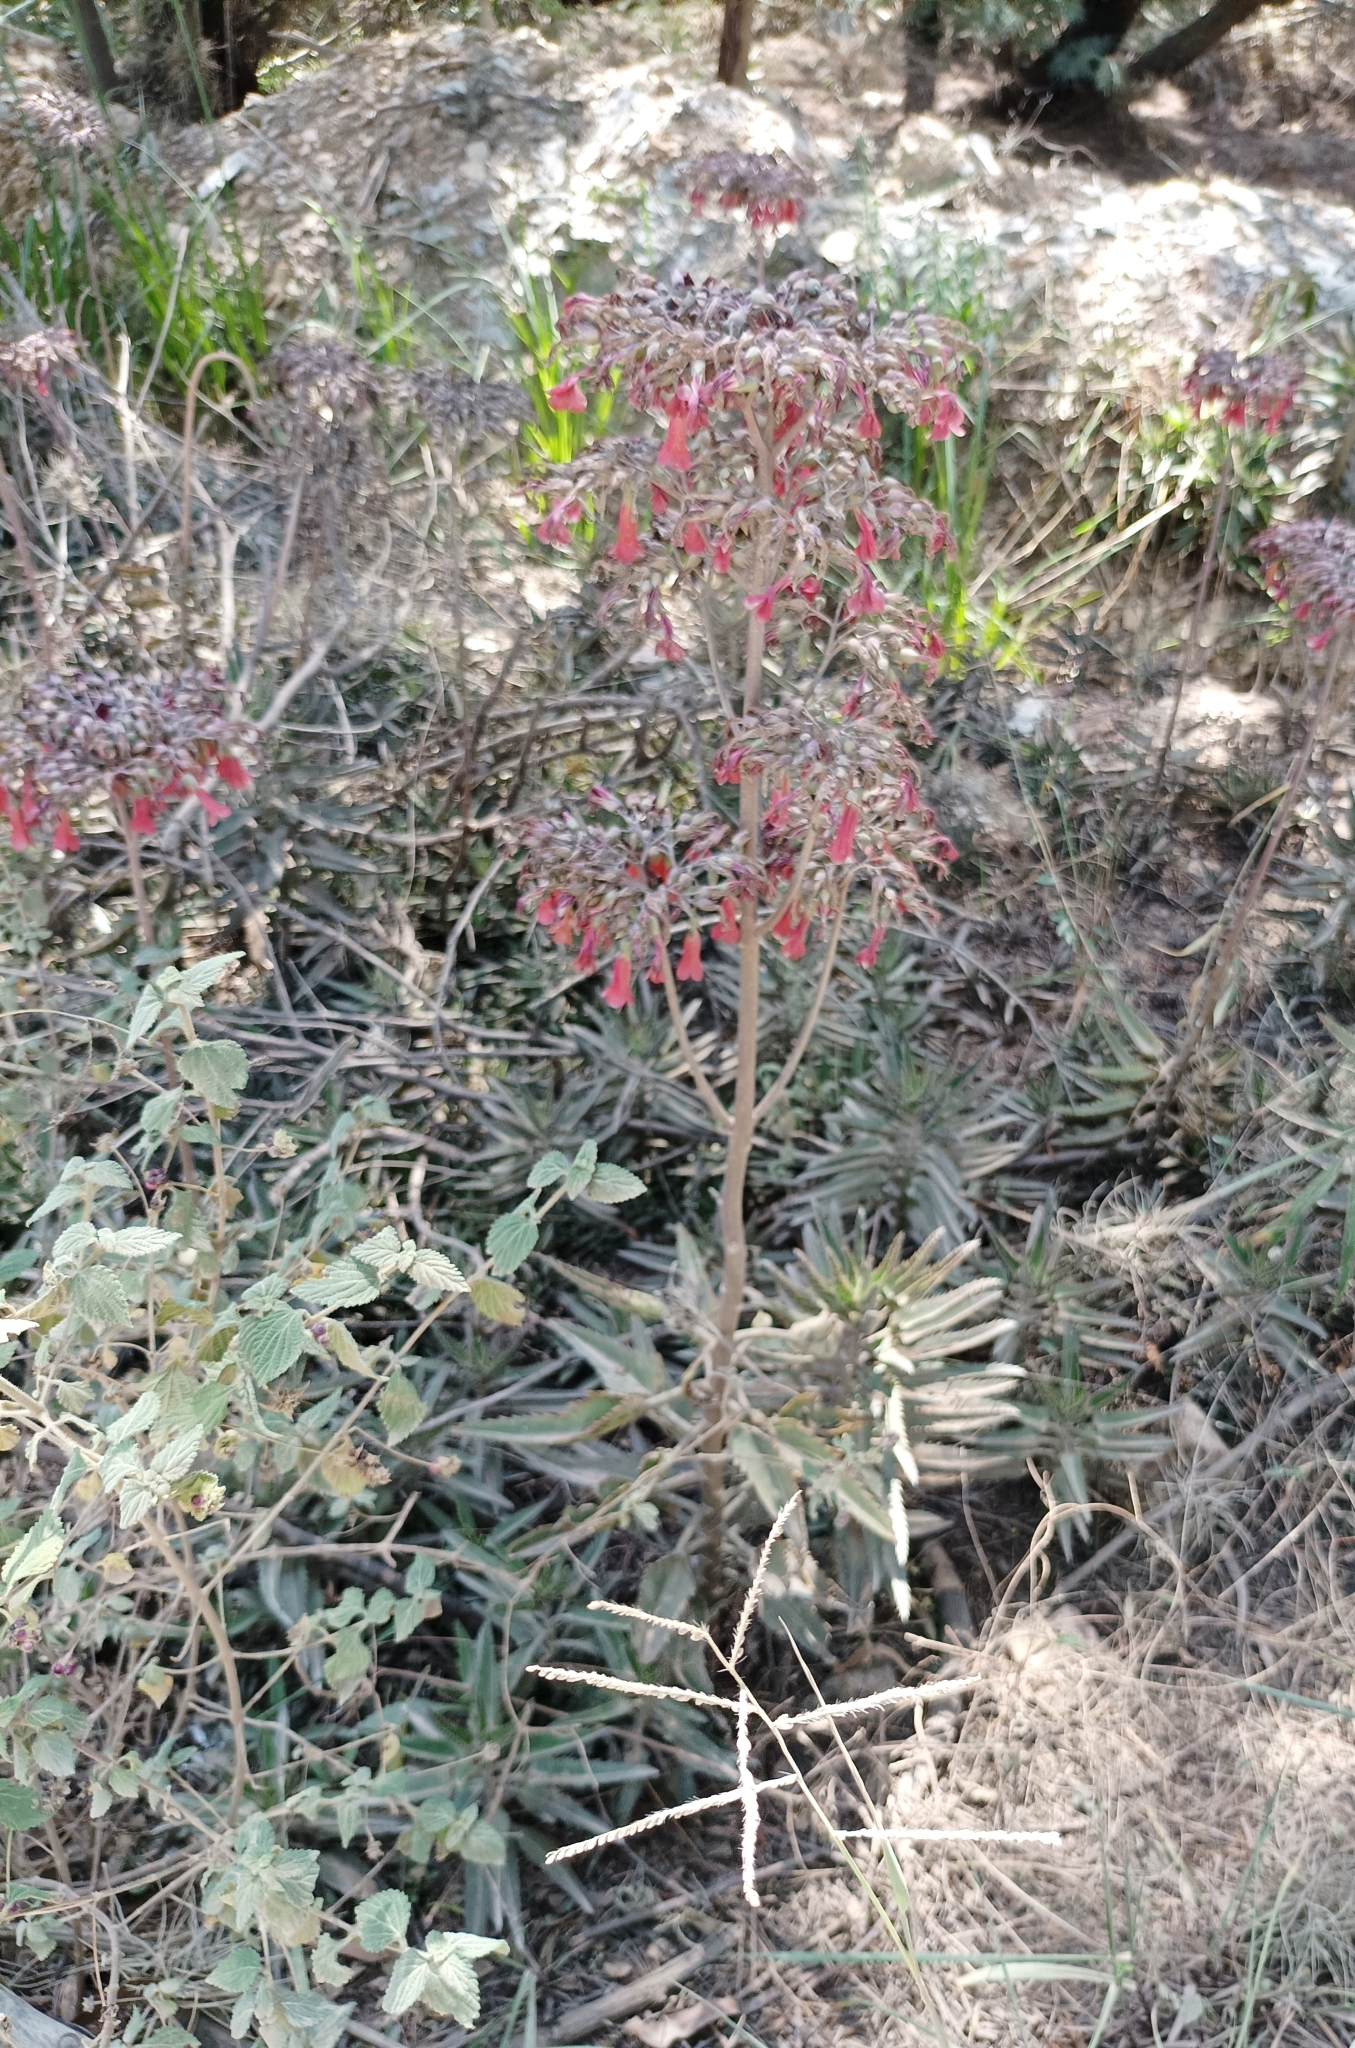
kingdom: Plantae
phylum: Tracheophyta
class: Magnoliopsida
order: Saxifragales
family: Crassulaceae
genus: Kalanchoe
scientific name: Kalanchoe houghtonii
